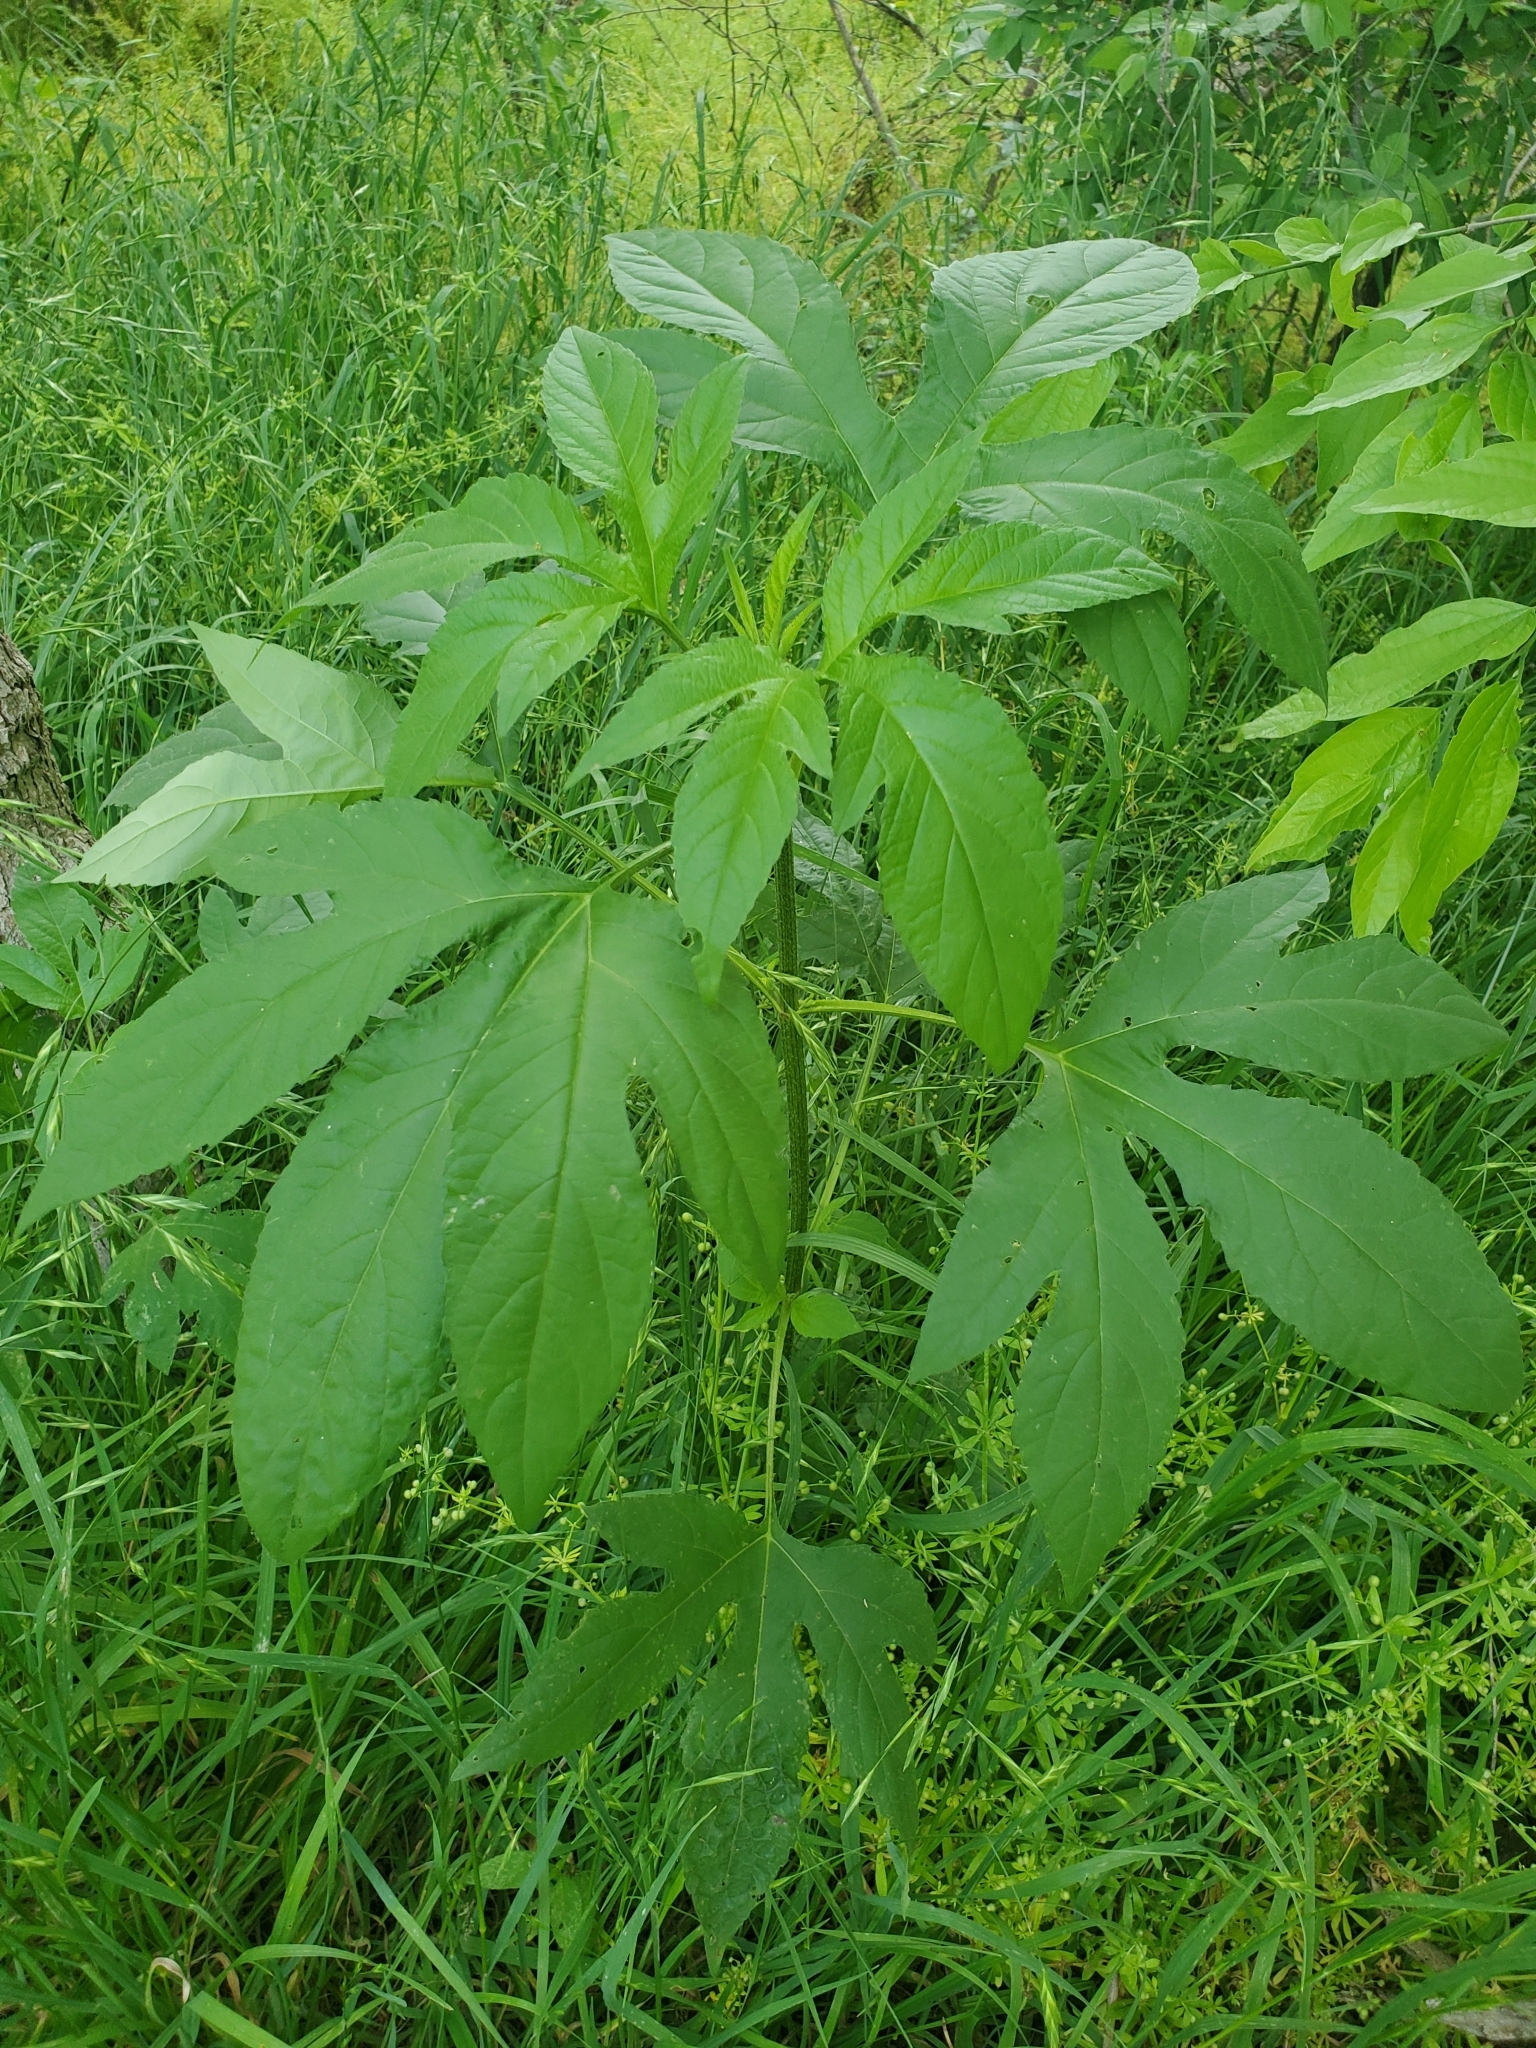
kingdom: Plantae
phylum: Tracheophyta
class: Magnoliopsida
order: Asterales
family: Asteraceae
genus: Ambrosia
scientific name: Ambrosia trifida
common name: Giant ragweed
